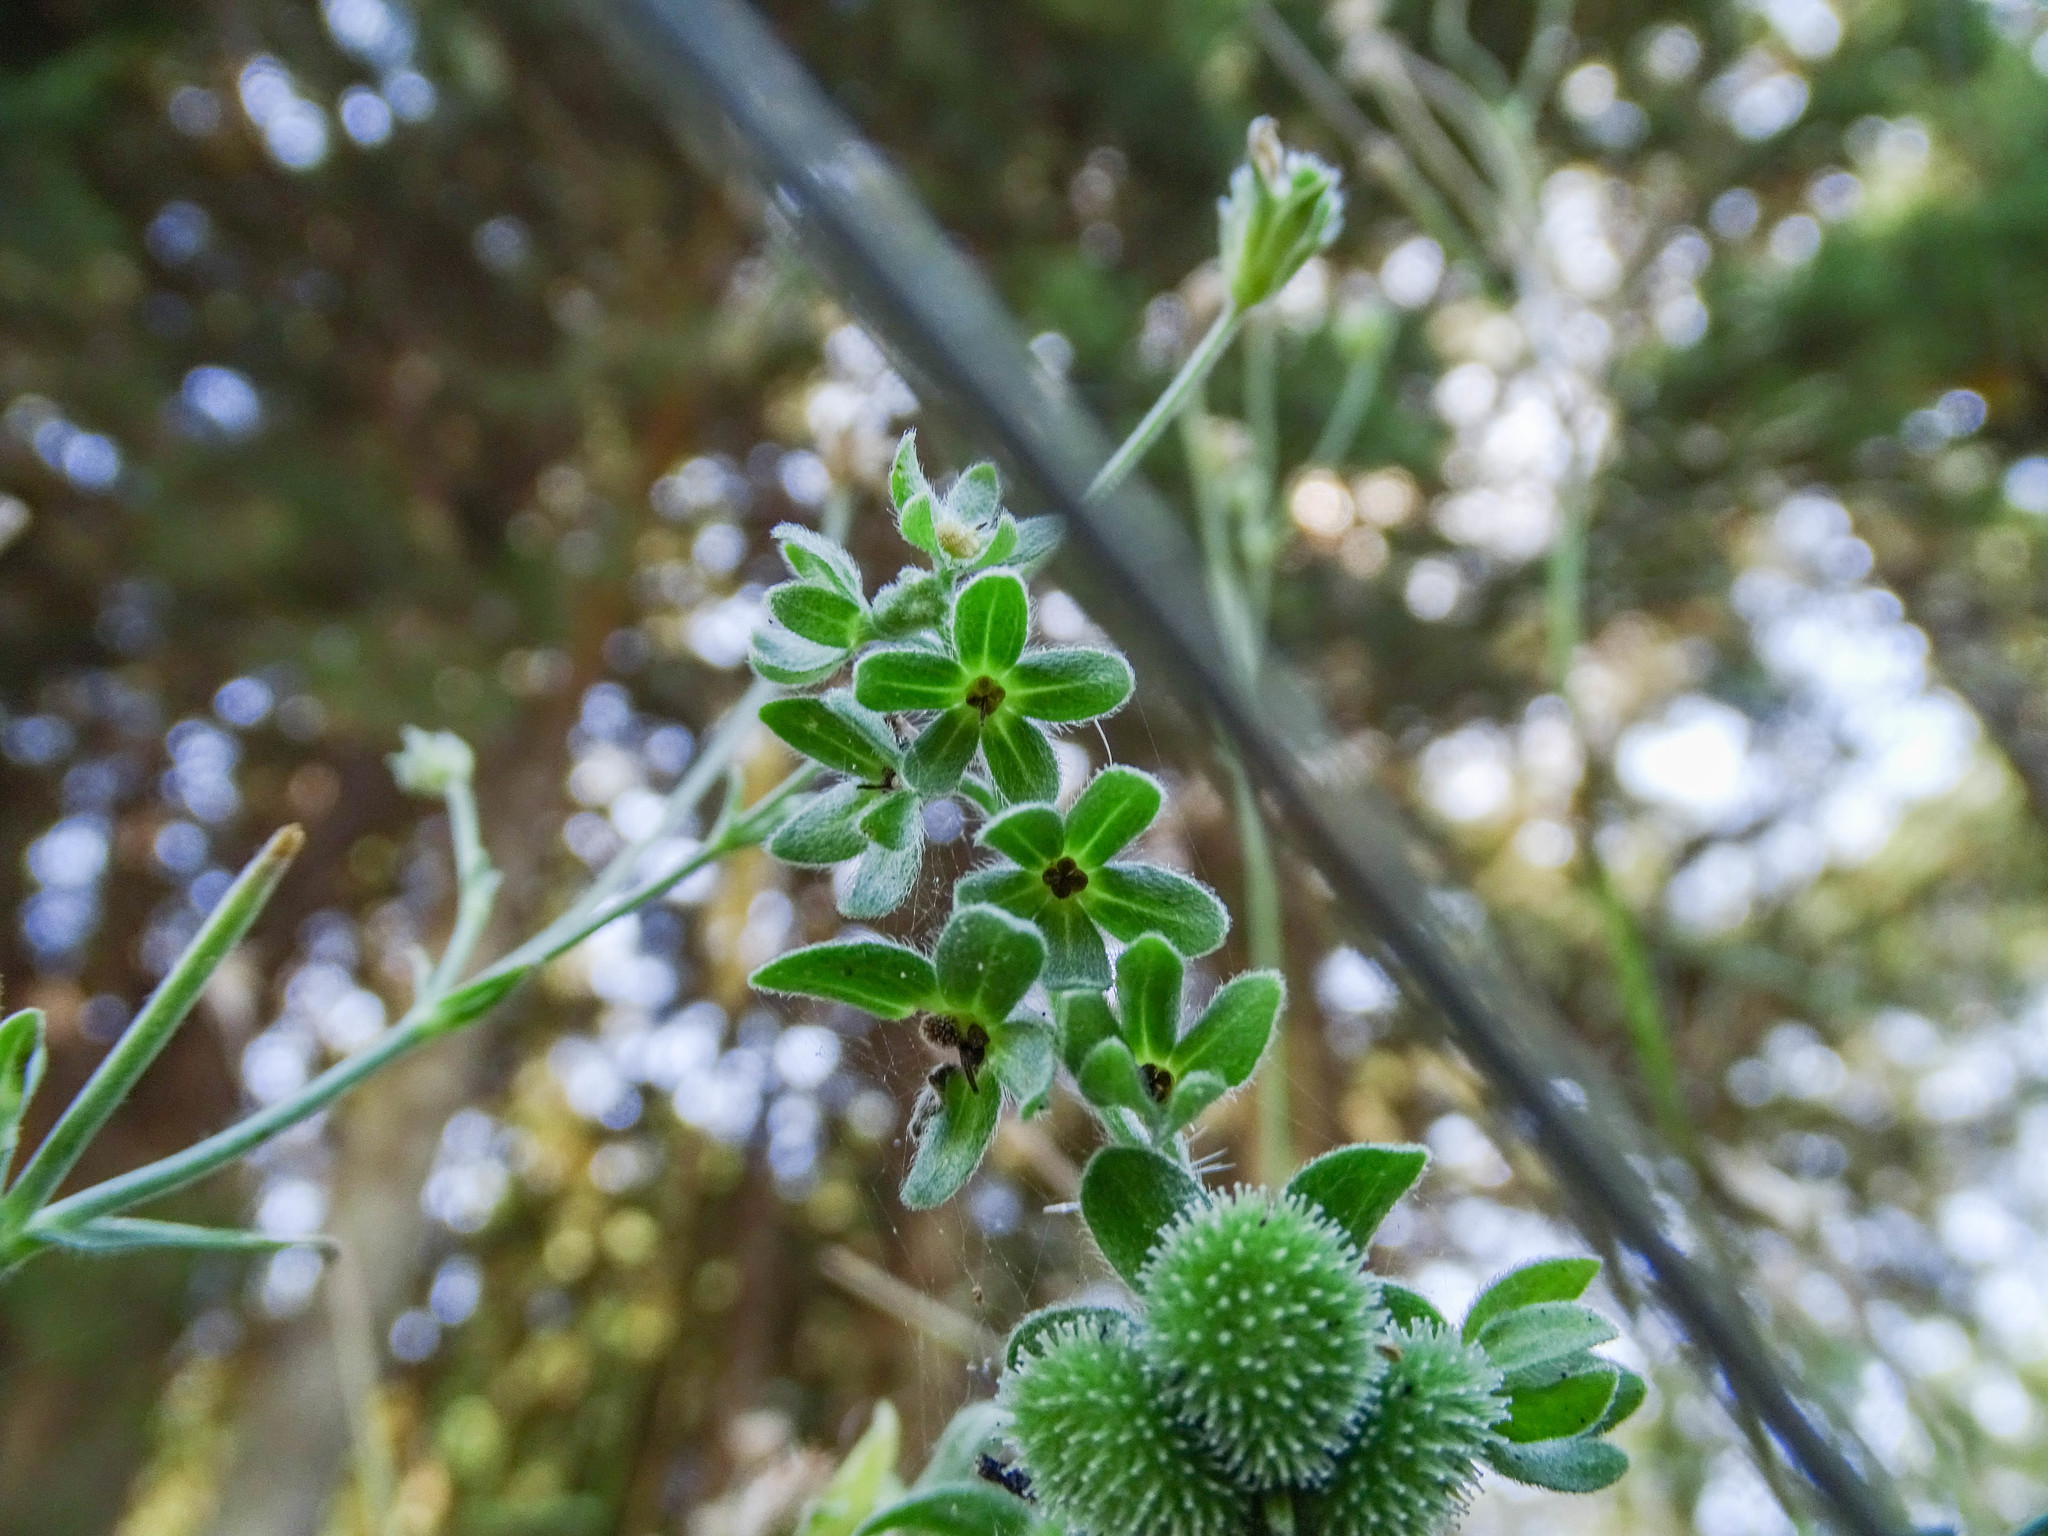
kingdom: Plantae
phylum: Tracheophyta
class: Magnoliopsida
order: Boraginales
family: Boraginaceae
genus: Cynoglossum
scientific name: Cynoglossum creticum
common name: Blue hound's tongue
